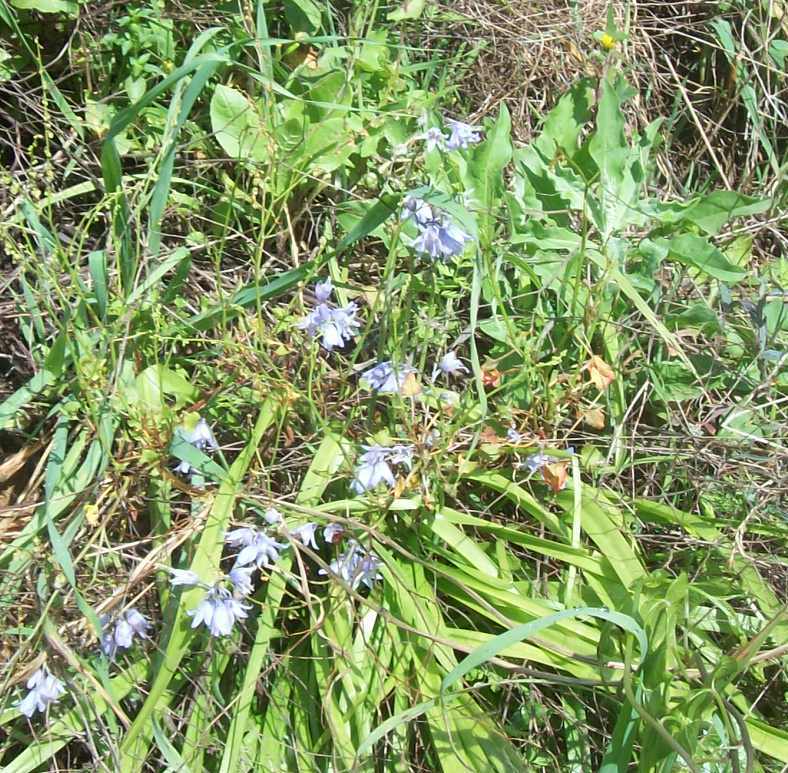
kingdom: Plantae
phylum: Tracheophyta
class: Liliopsida
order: Asparagales
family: Asparagaceae
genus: Hyacinthoides
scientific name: Hyacinthoides hispanica
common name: Spanish bluebell
